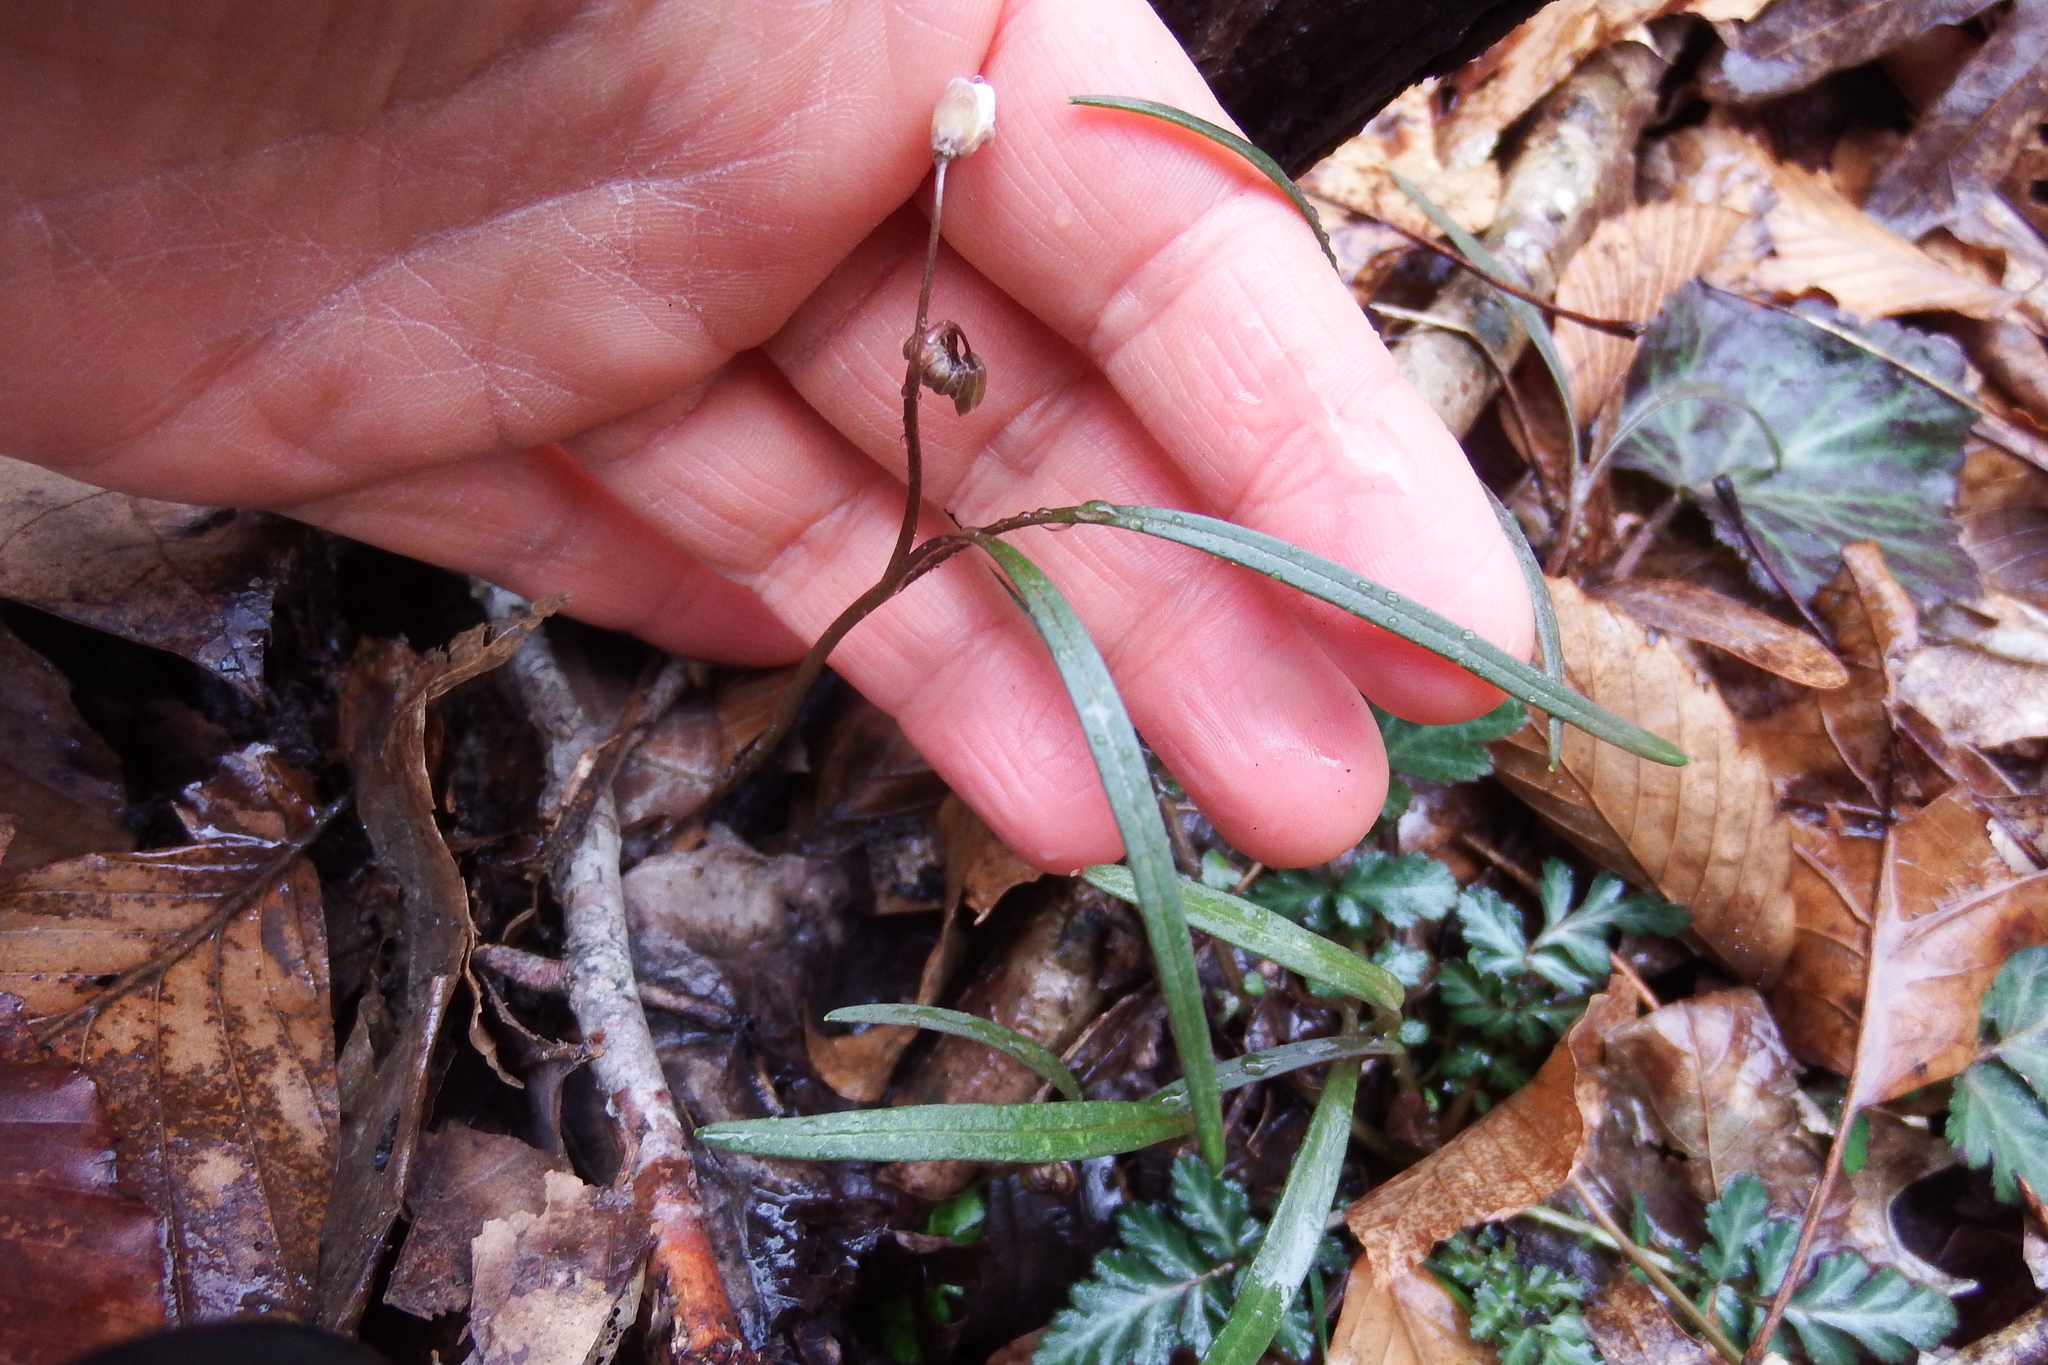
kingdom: Plantae
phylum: Tracheophyta
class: Magnoliopsida
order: Caryophyllales
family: Montiaceae
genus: Claytonia
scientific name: Claytonia virginica
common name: Virginia springbeauty
